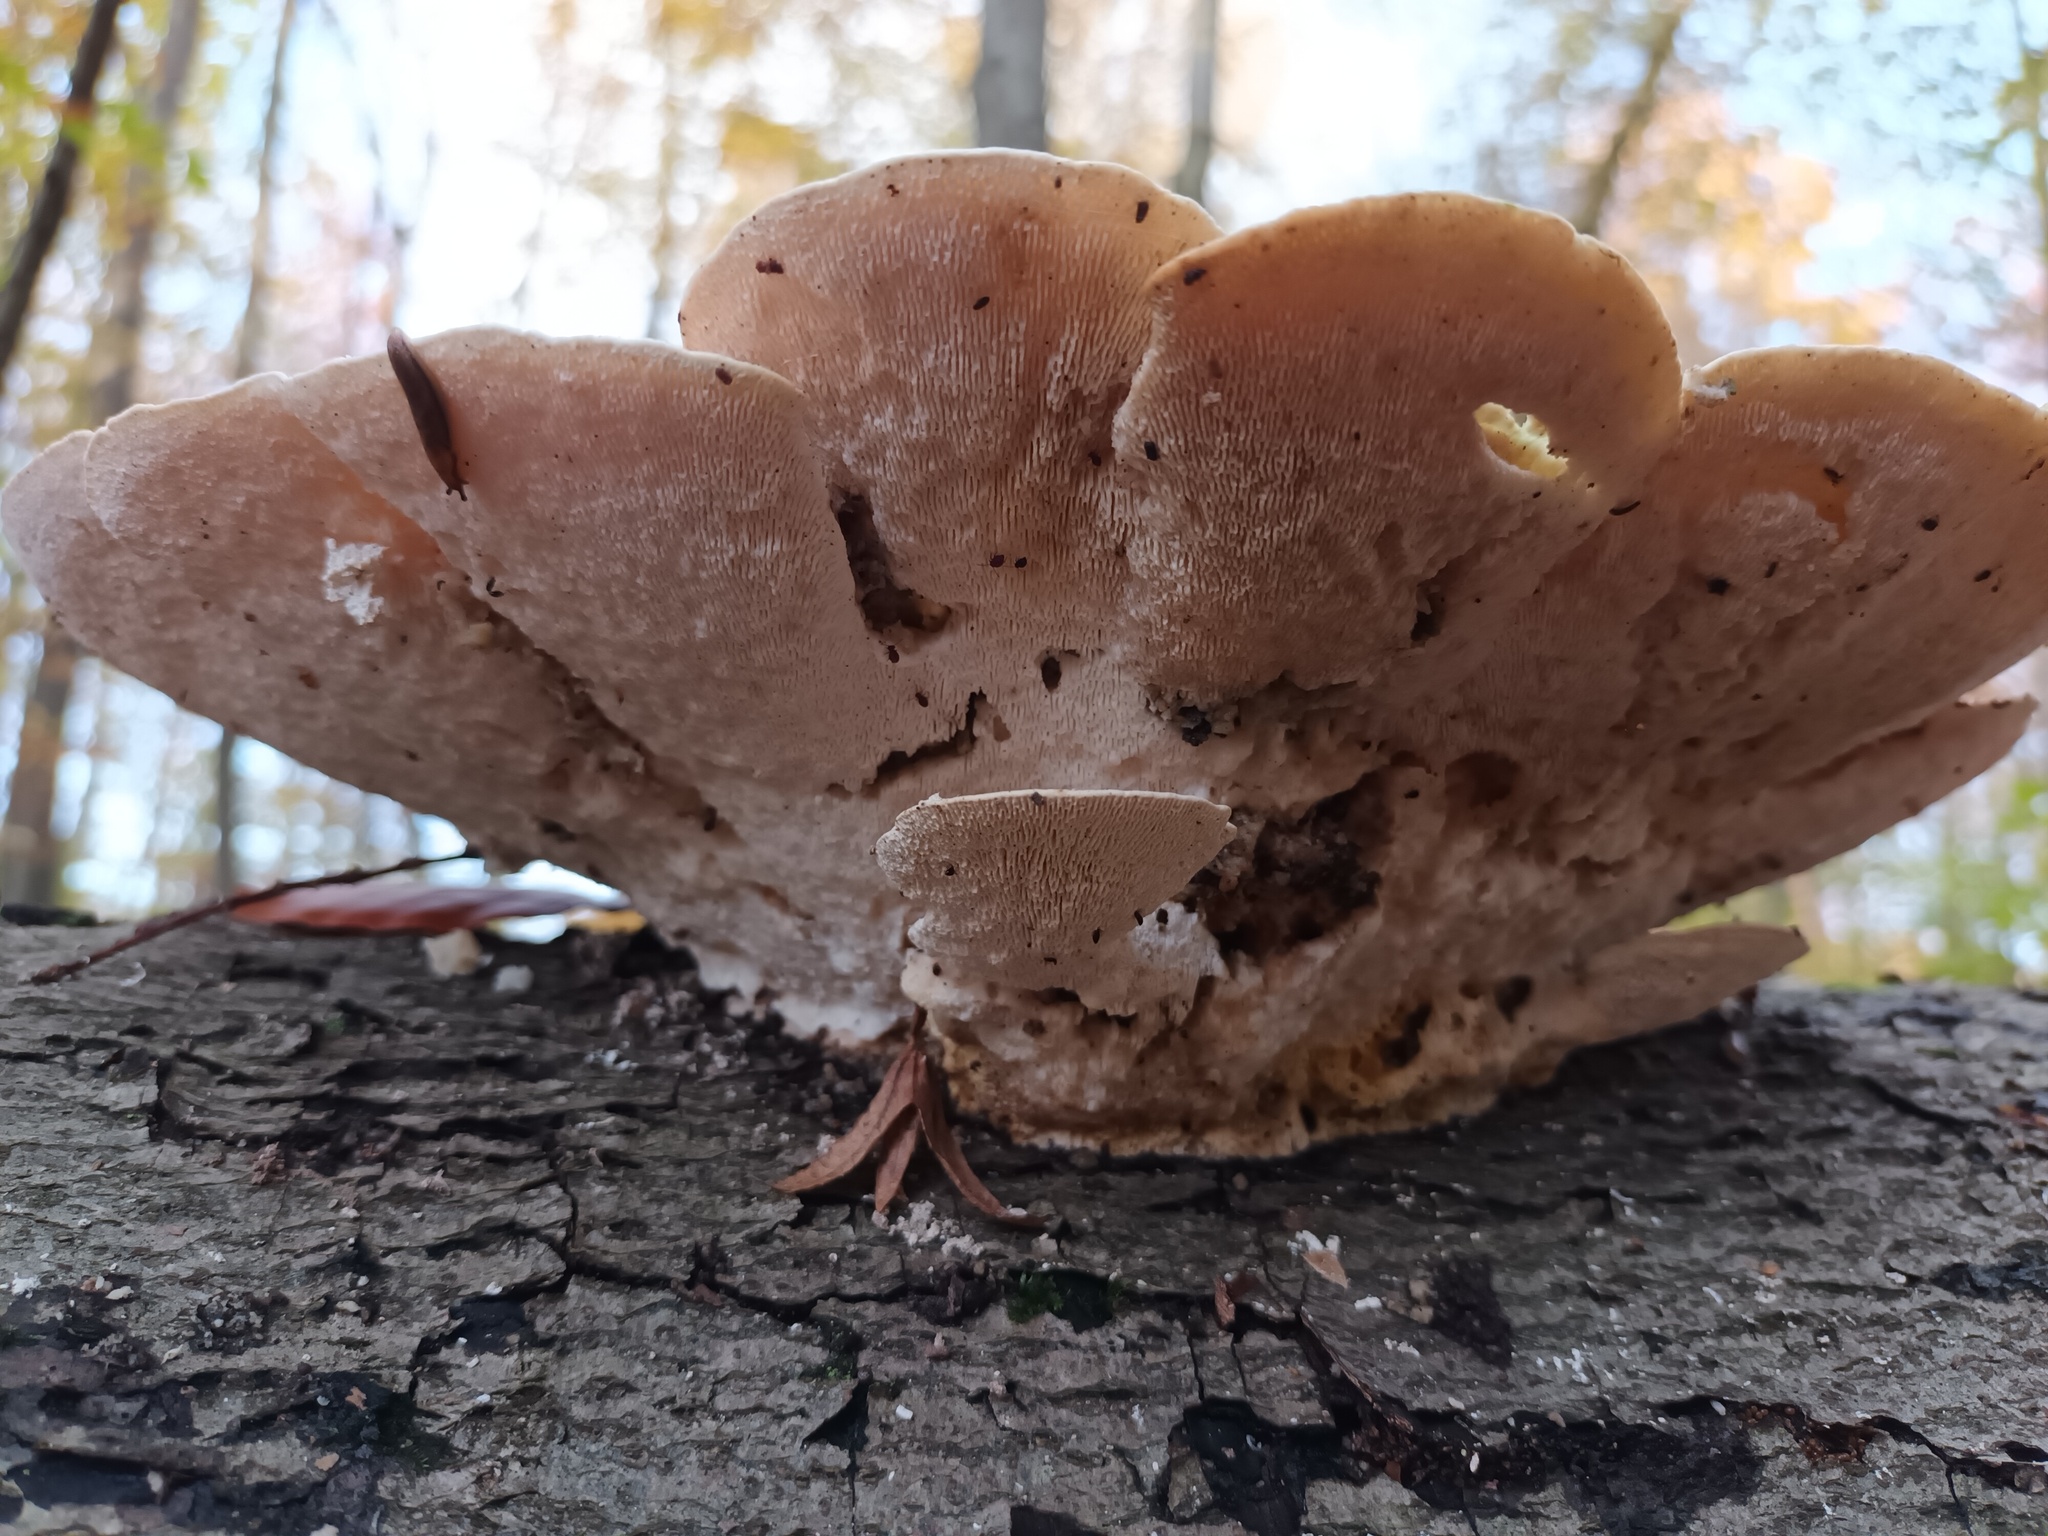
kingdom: Fungi
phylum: Basidiomycota
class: Agaricomycetes
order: Polyporales
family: Polyporaceae
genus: Trametes
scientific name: Trametes gibbosa
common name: Lumpy bracket
